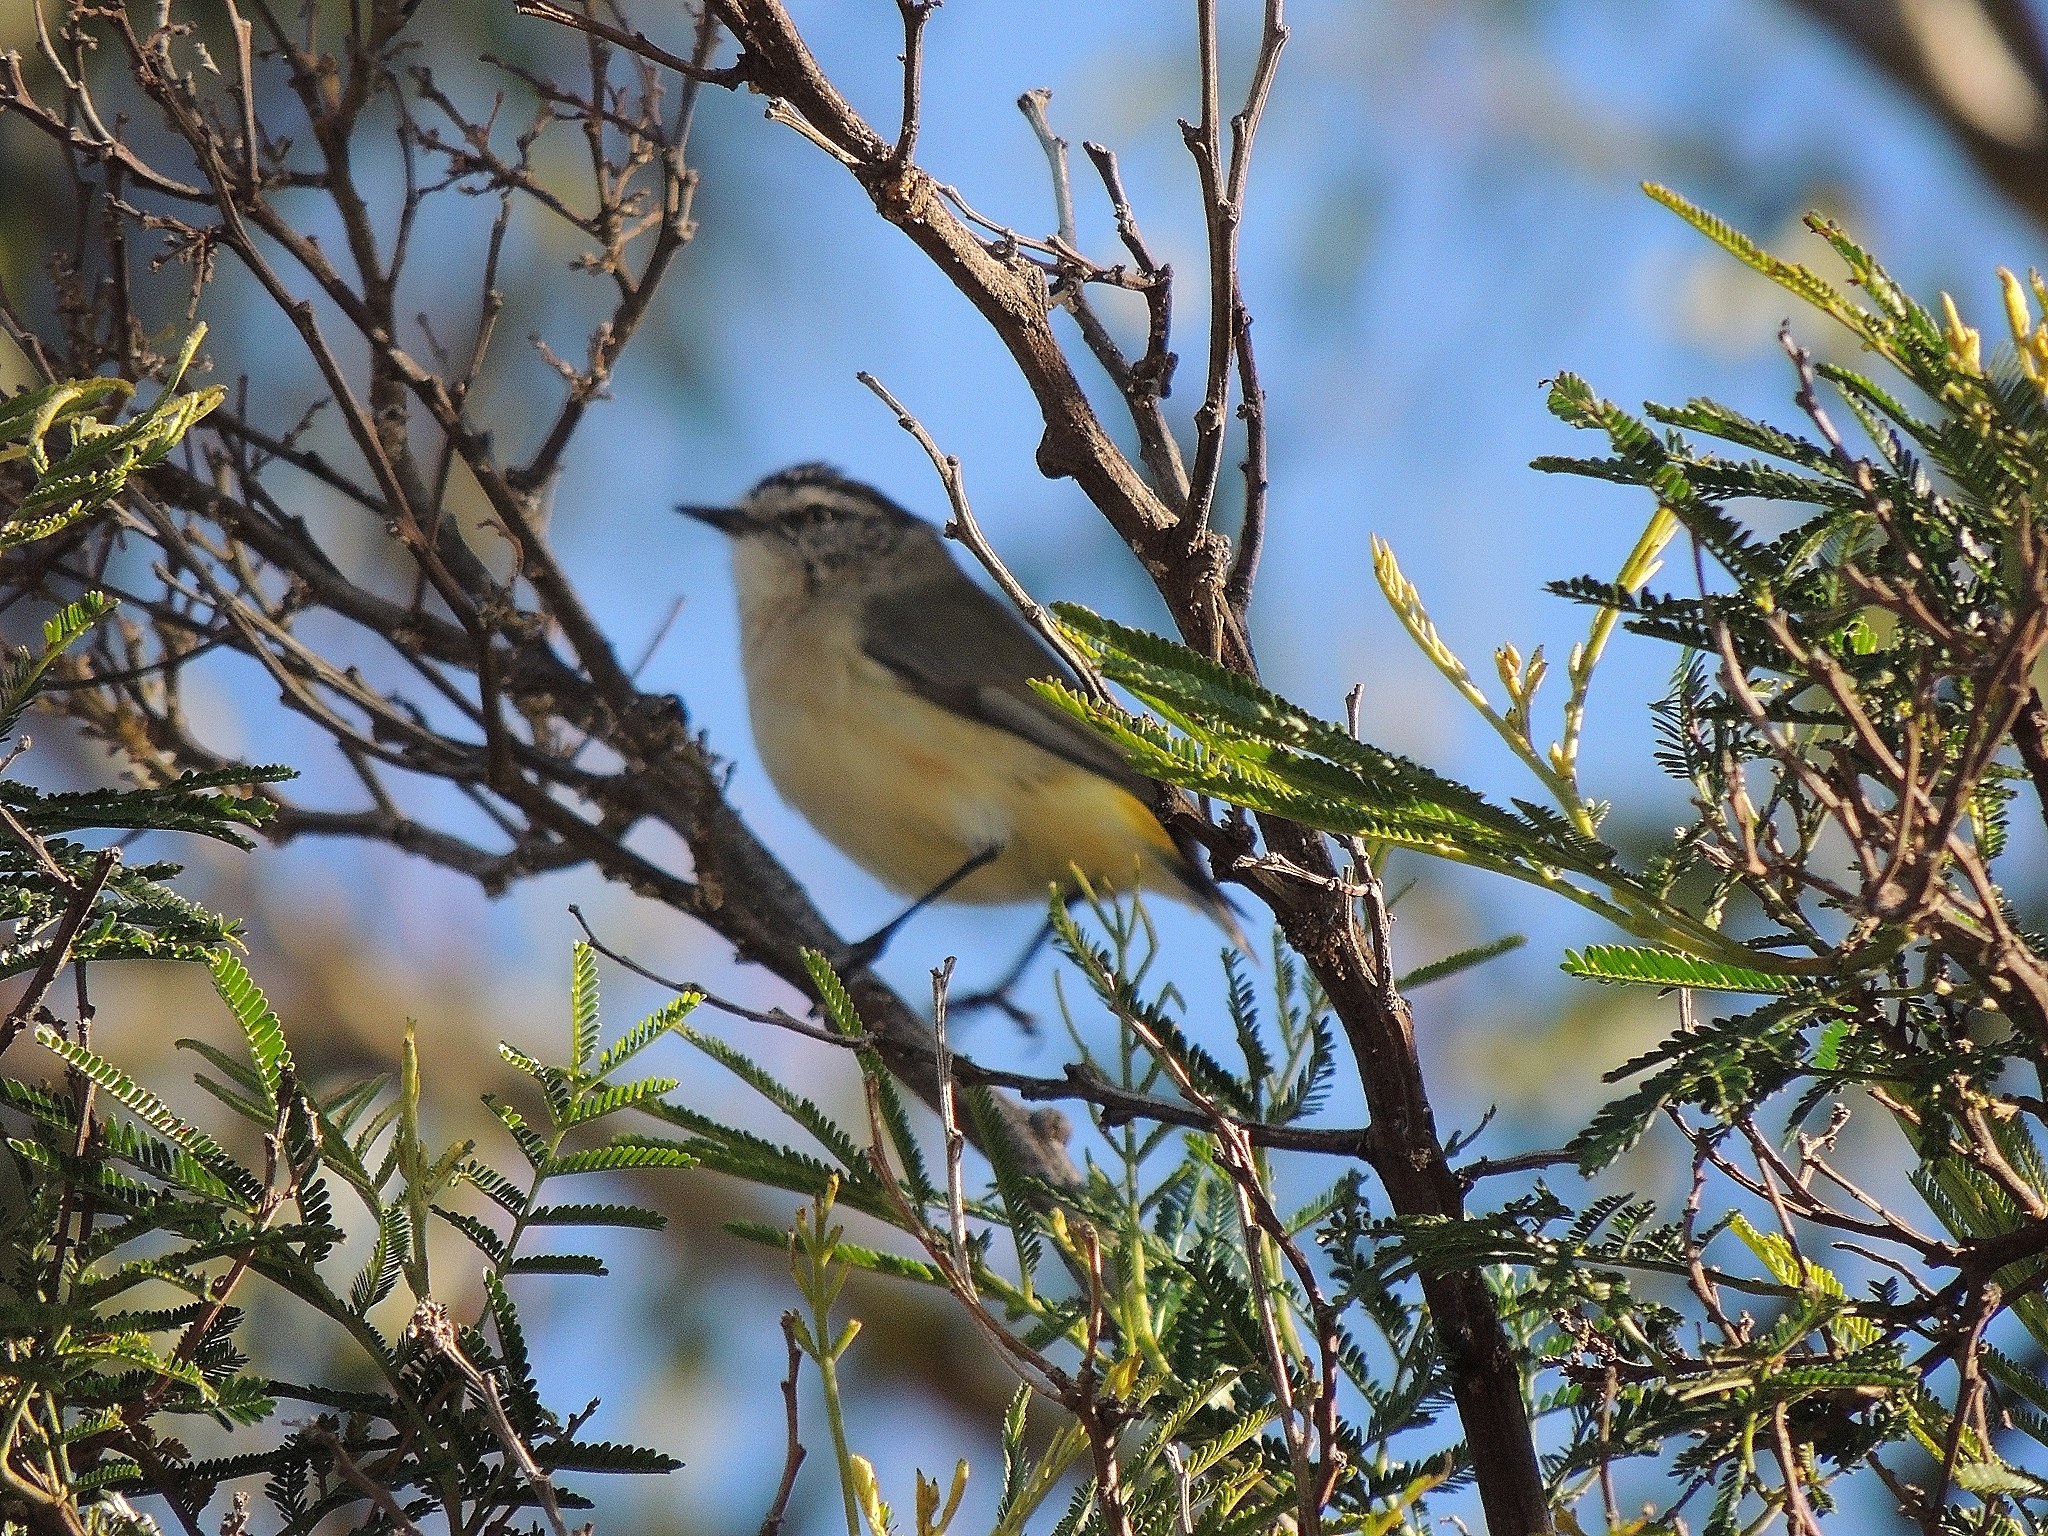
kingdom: Animalia
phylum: Chordata
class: Aves
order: Passeriformes
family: Acanthizidae
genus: Acanthiza
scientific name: Acanthiza chrysorrhoa
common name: Yellow-rumped thornbill
